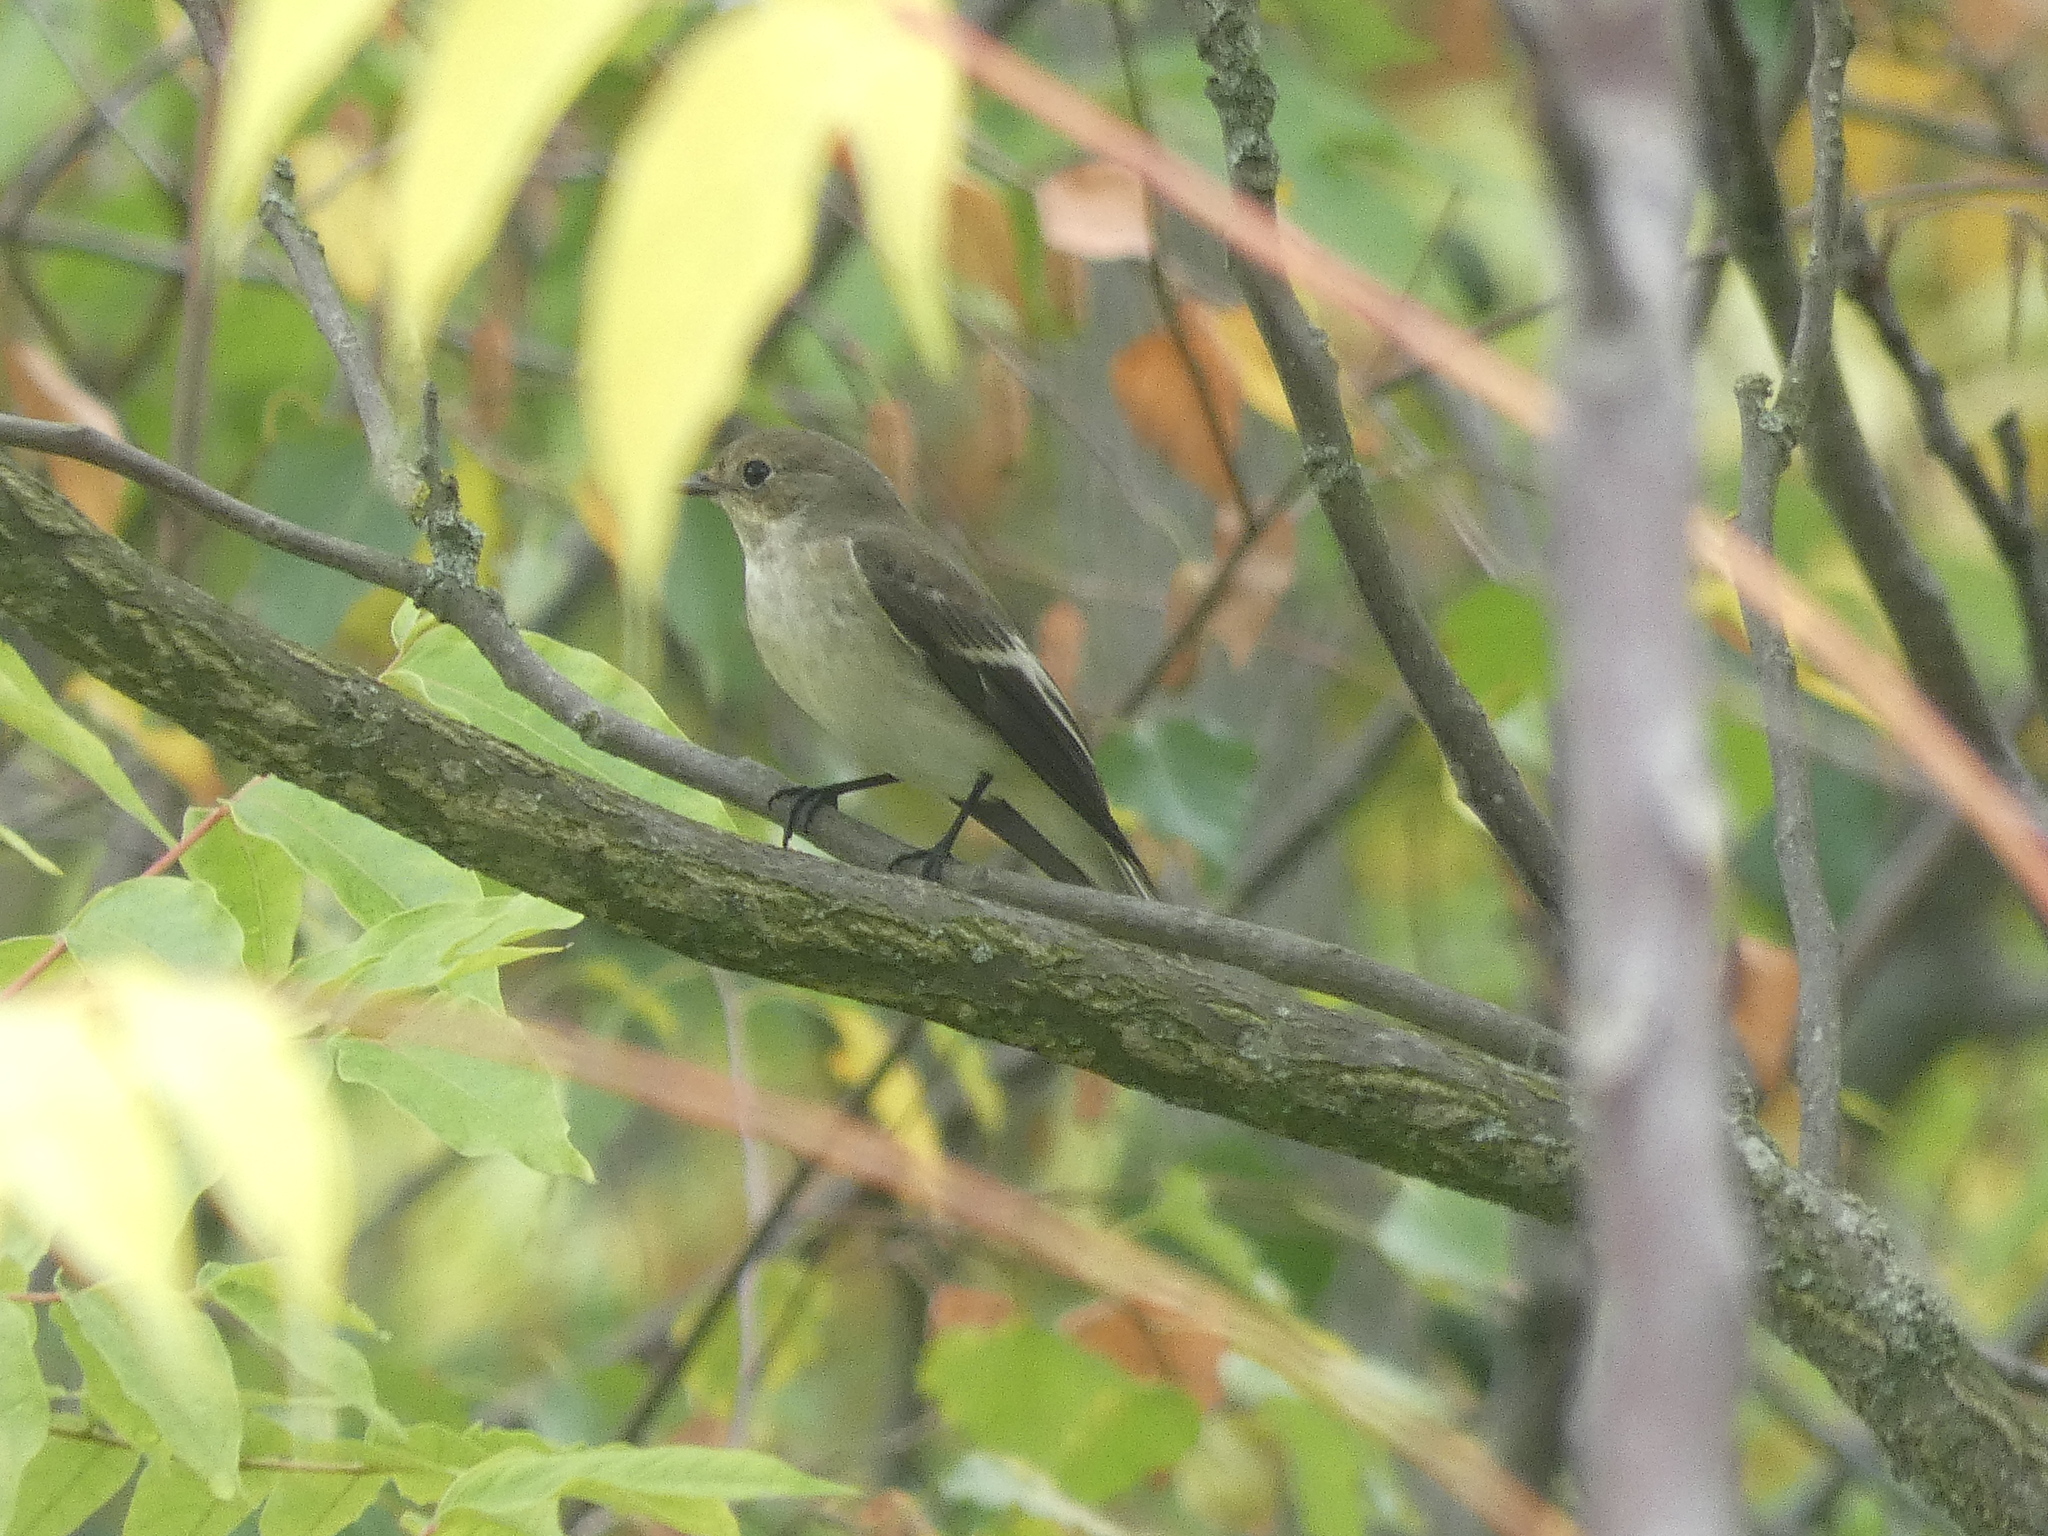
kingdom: Animalia
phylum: Chordata
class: Aves
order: Passeriformes
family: Muscicapidae
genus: Ficedula
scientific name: Ficedula hypoleuca
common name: European pied flycatcher
